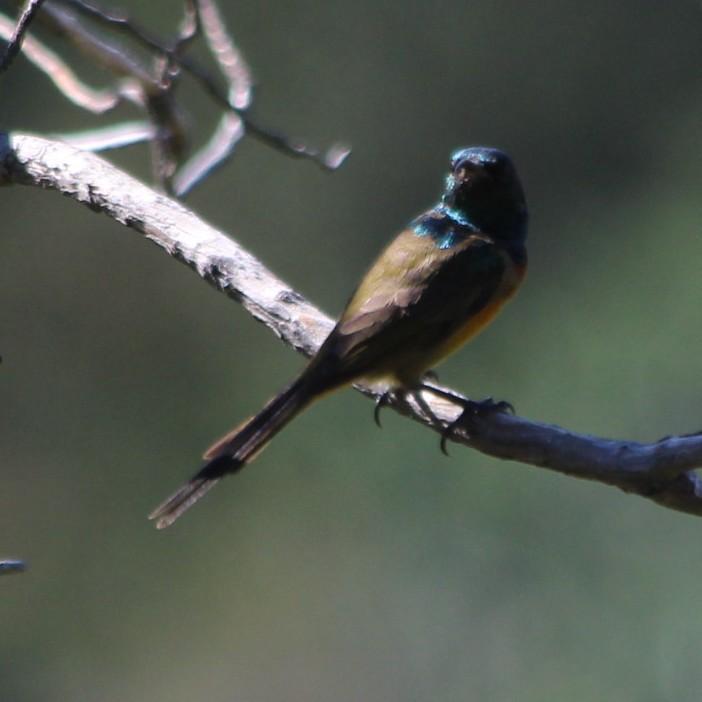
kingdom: Animalia
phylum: Chordata
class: Aves
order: Passeriformes
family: Nectariniidae
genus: Anthobaphes
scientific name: Anthobaphes violacea
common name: Orange-breasted sunbird
